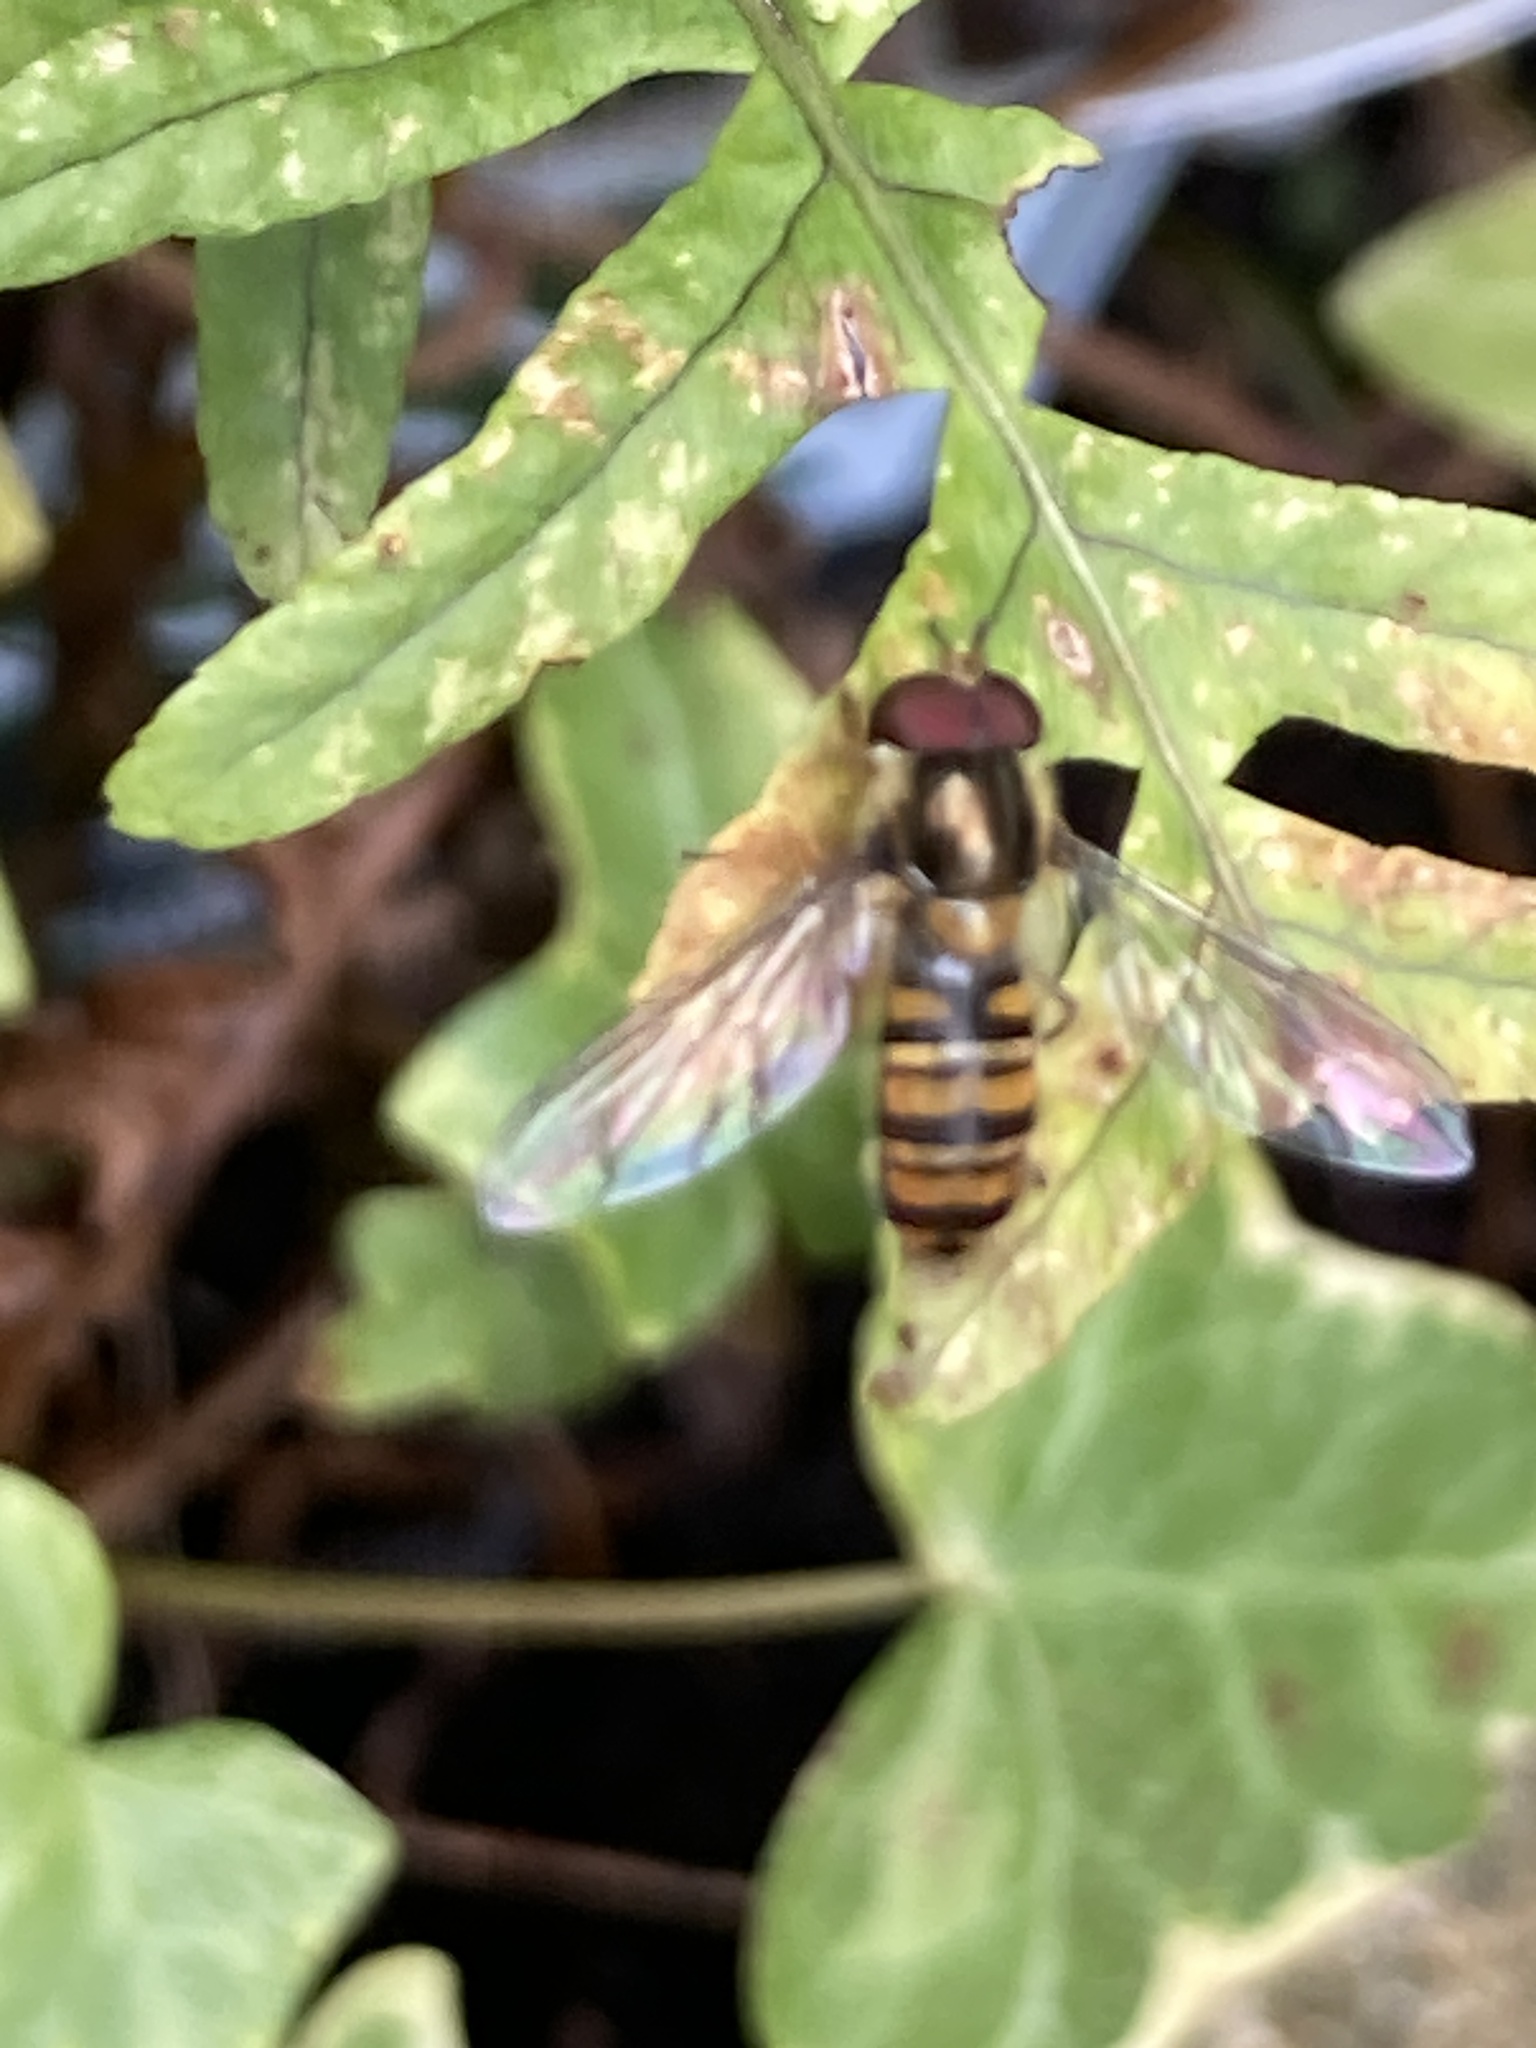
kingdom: Animalia
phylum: Arthropoda
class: Insecta
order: Diptera
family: Syrphidae
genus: Episyrphus
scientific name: Episyrphus balteatus
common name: Marmalade hoverfly
